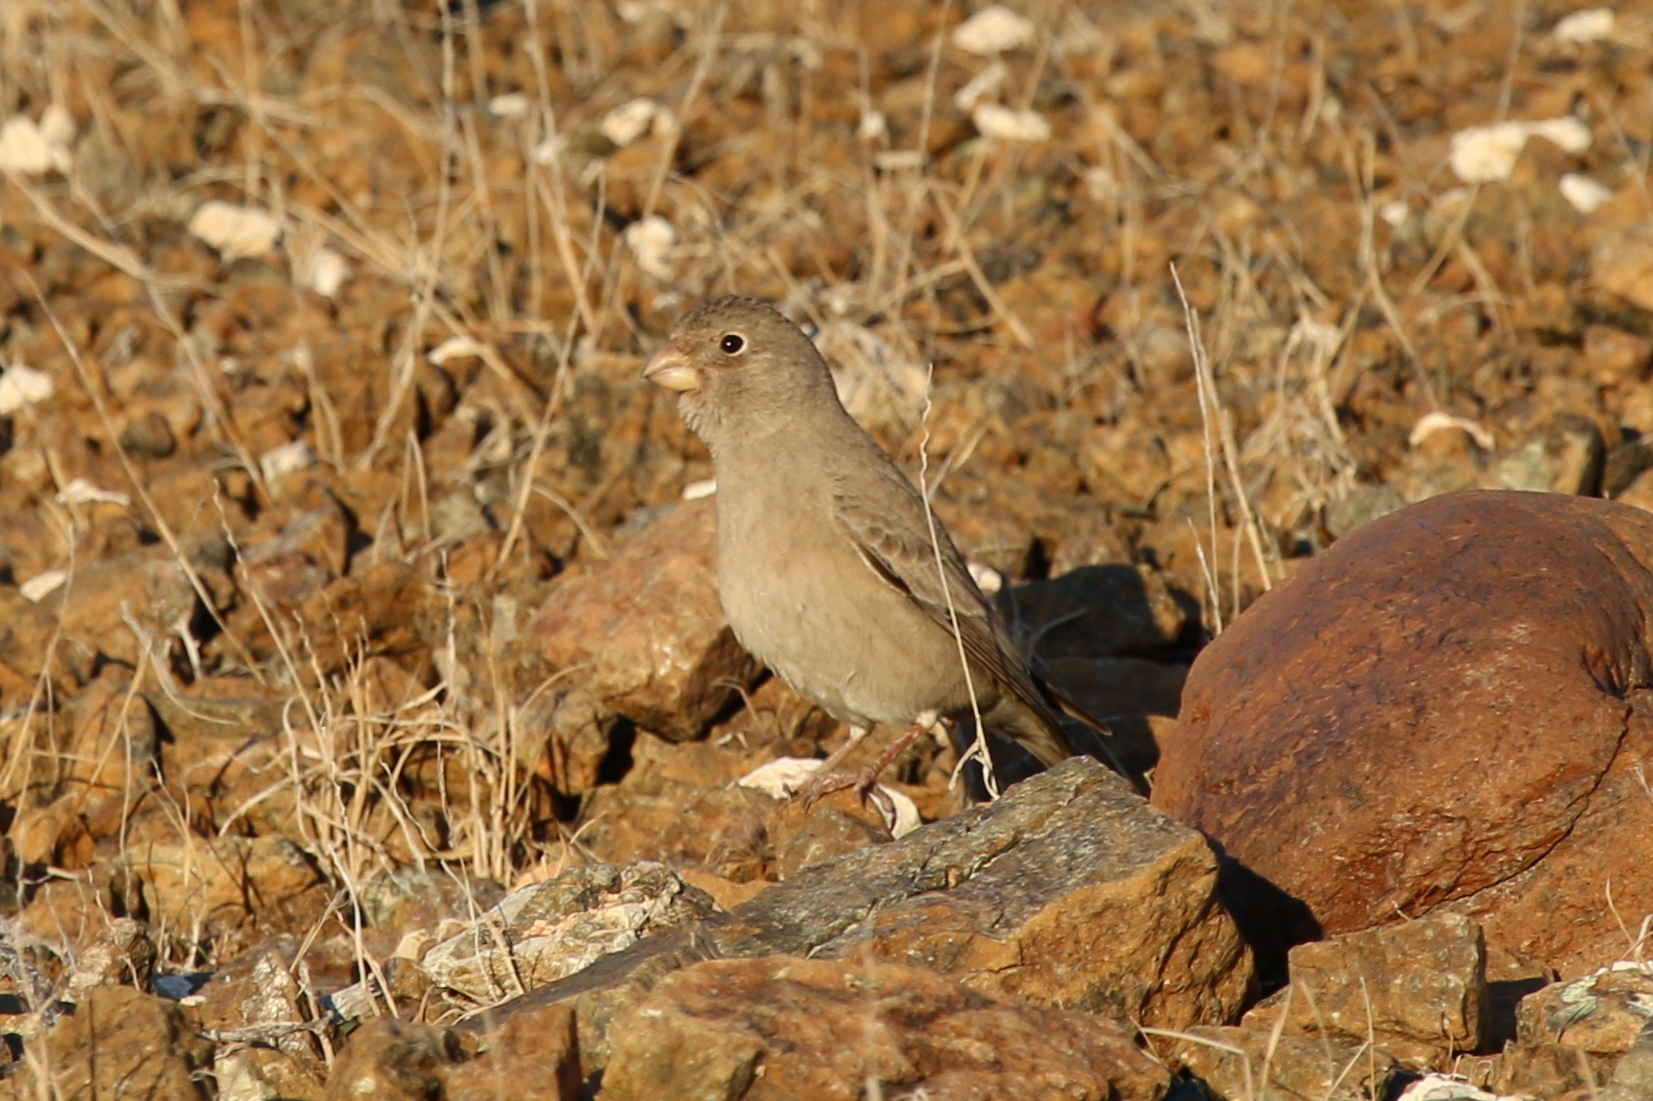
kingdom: Animalia
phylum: Chordata
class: Aves
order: Passeriformes
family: Fringillidae
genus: Bucanetes
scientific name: Bucanetes githagineus
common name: Trumpeter finch
